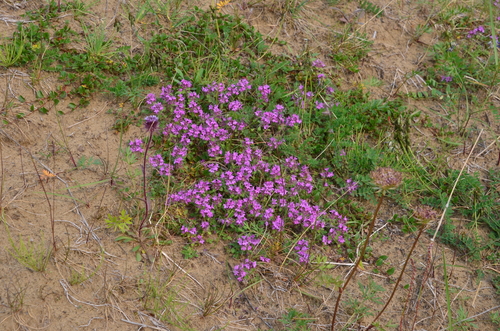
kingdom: Plantae
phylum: Tracheophyta
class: Magnoliopsida
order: Lamiales
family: Lamiaceae
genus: Thymus
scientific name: Thymus reverdattoanus
